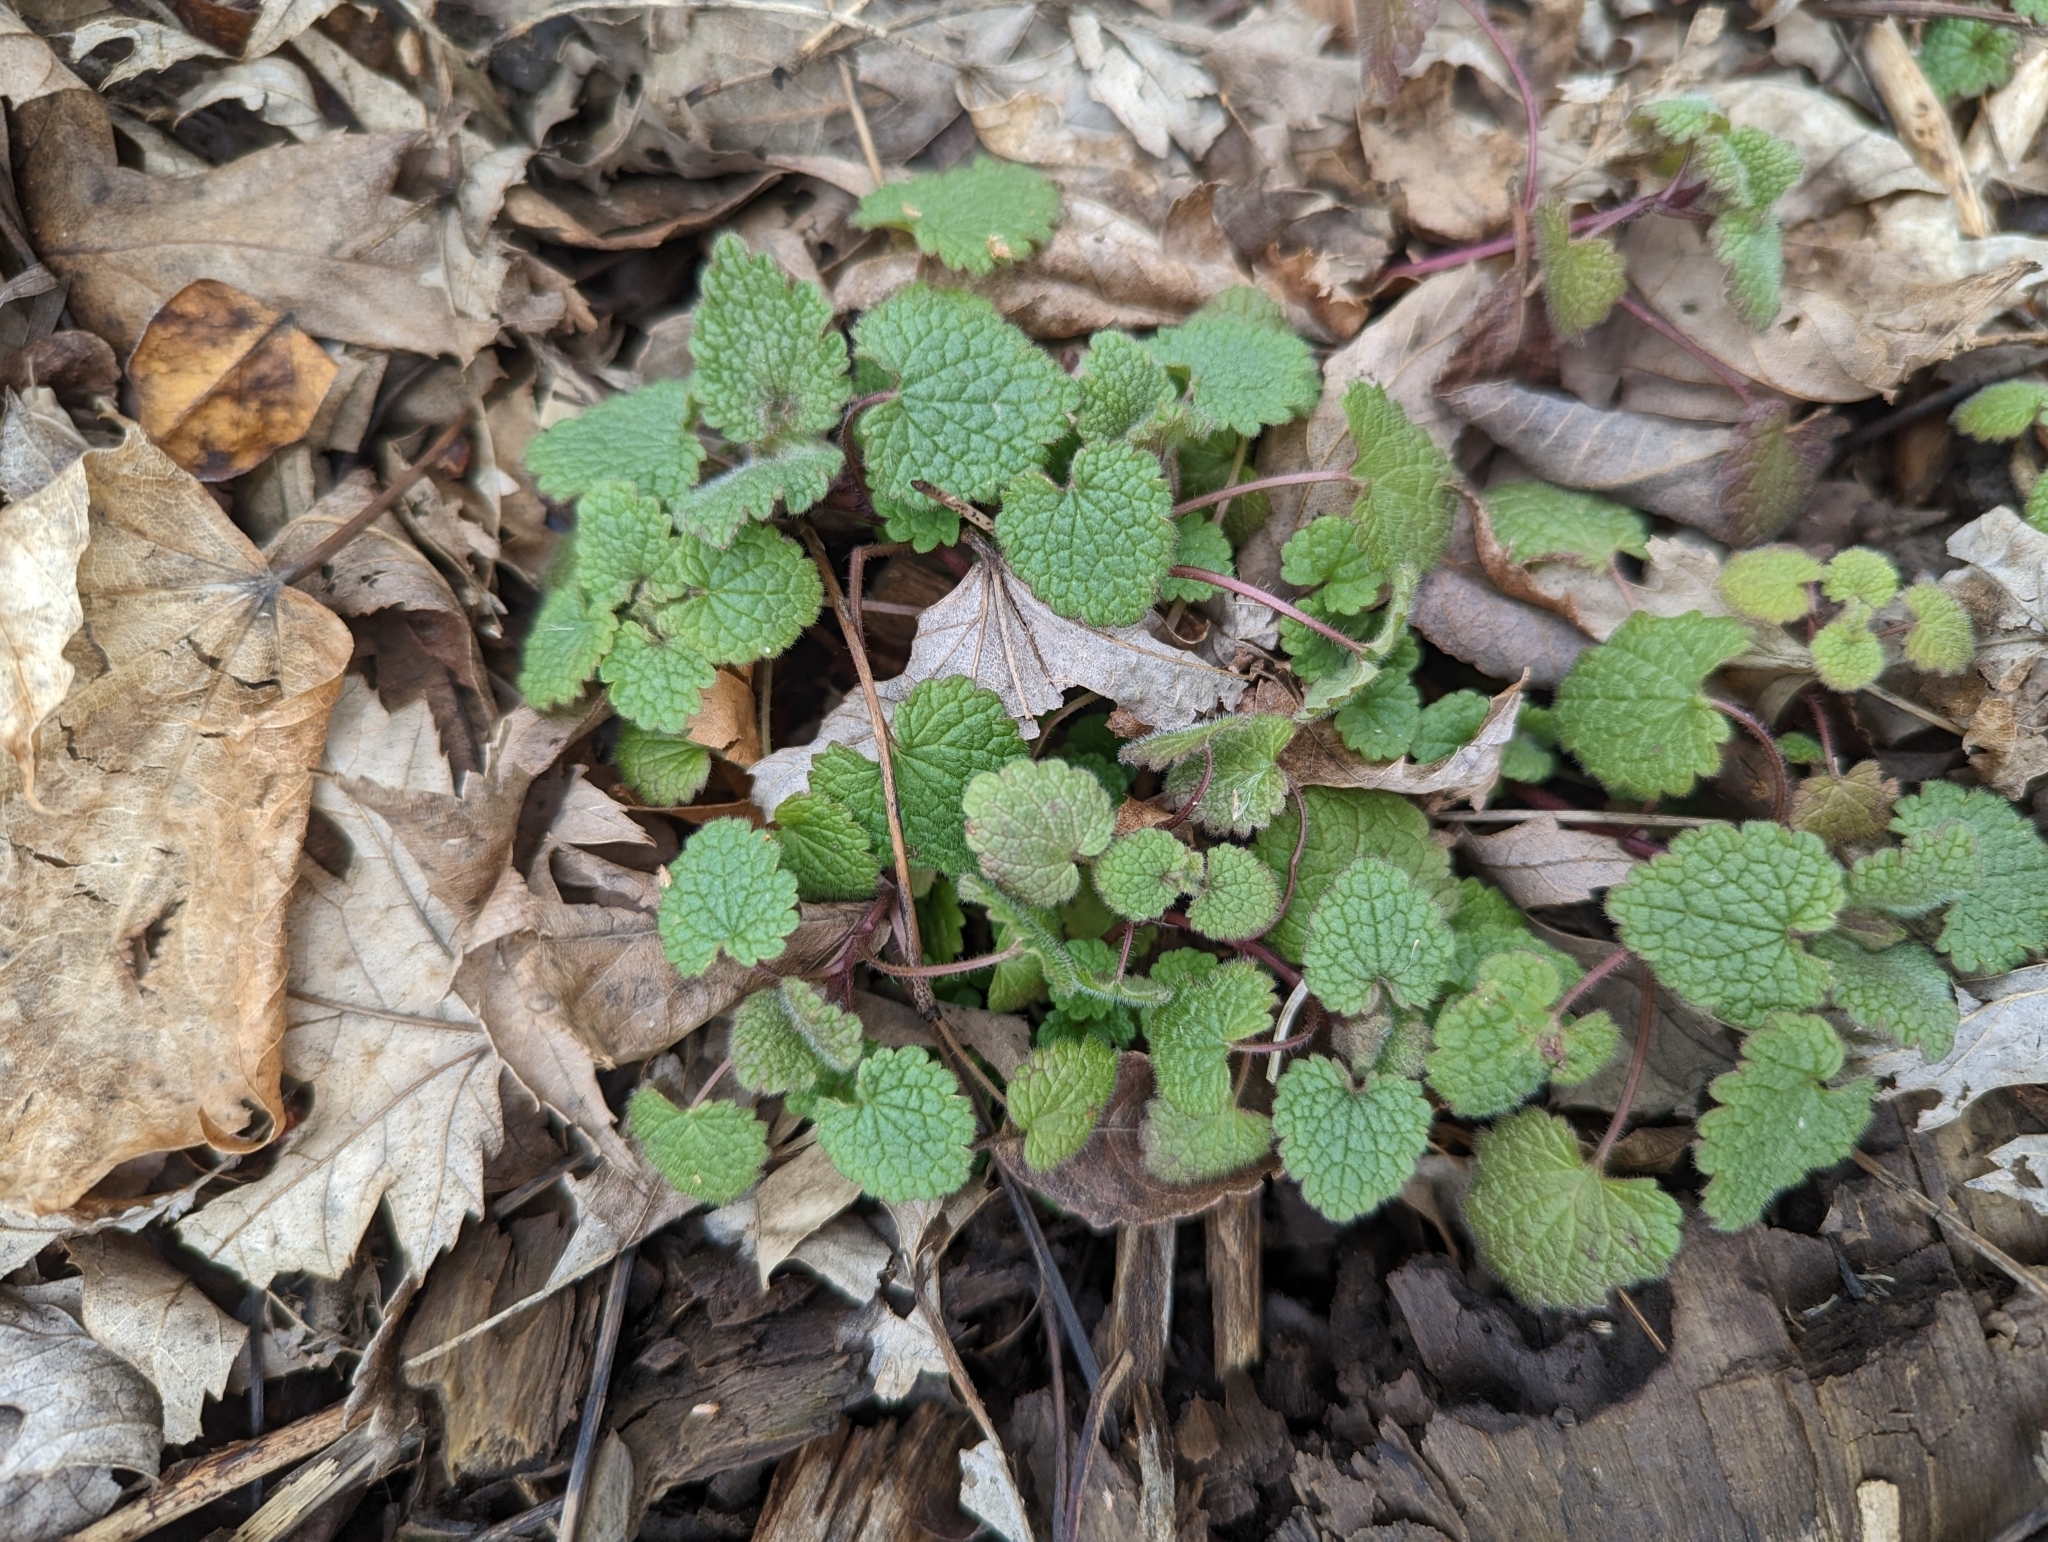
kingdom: Plantae
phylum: Tracheophyta
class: Magnoliopsida
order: Lamiales
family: Lamiaceae
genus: Lamium
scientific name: Lamium purpureum
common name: Red dead-nettle
